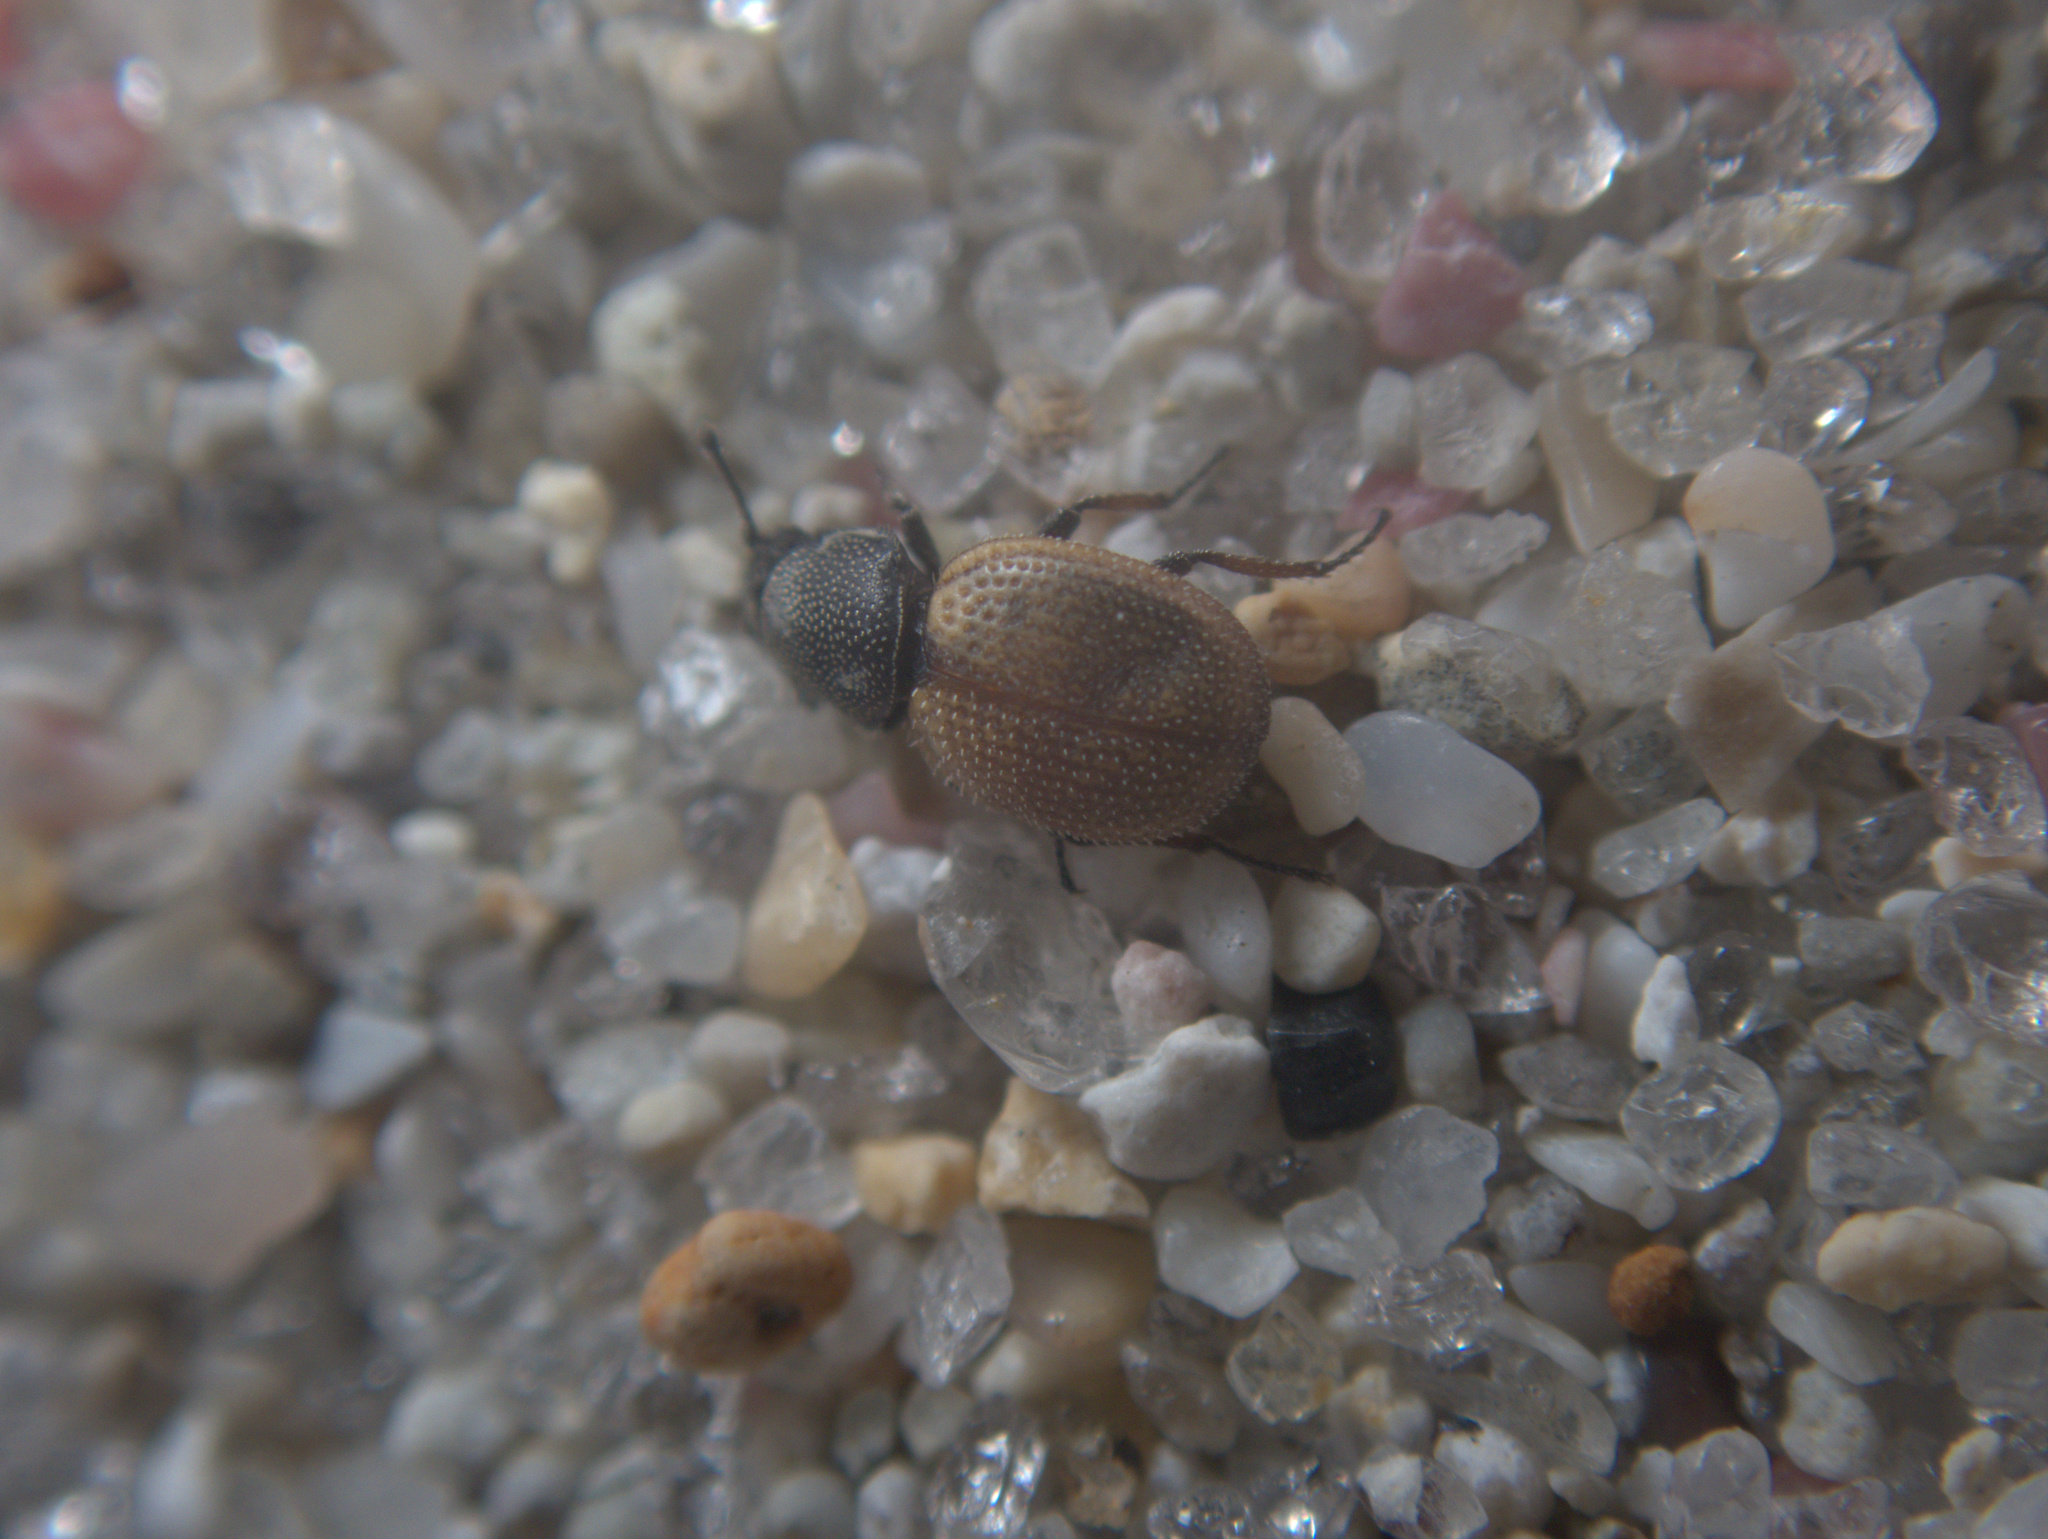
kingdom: Animalia
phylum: Arthropoda
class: Insecta
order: Coleoptera
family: Phycosecidae
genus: Phycosecis
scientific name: Phycosecis
